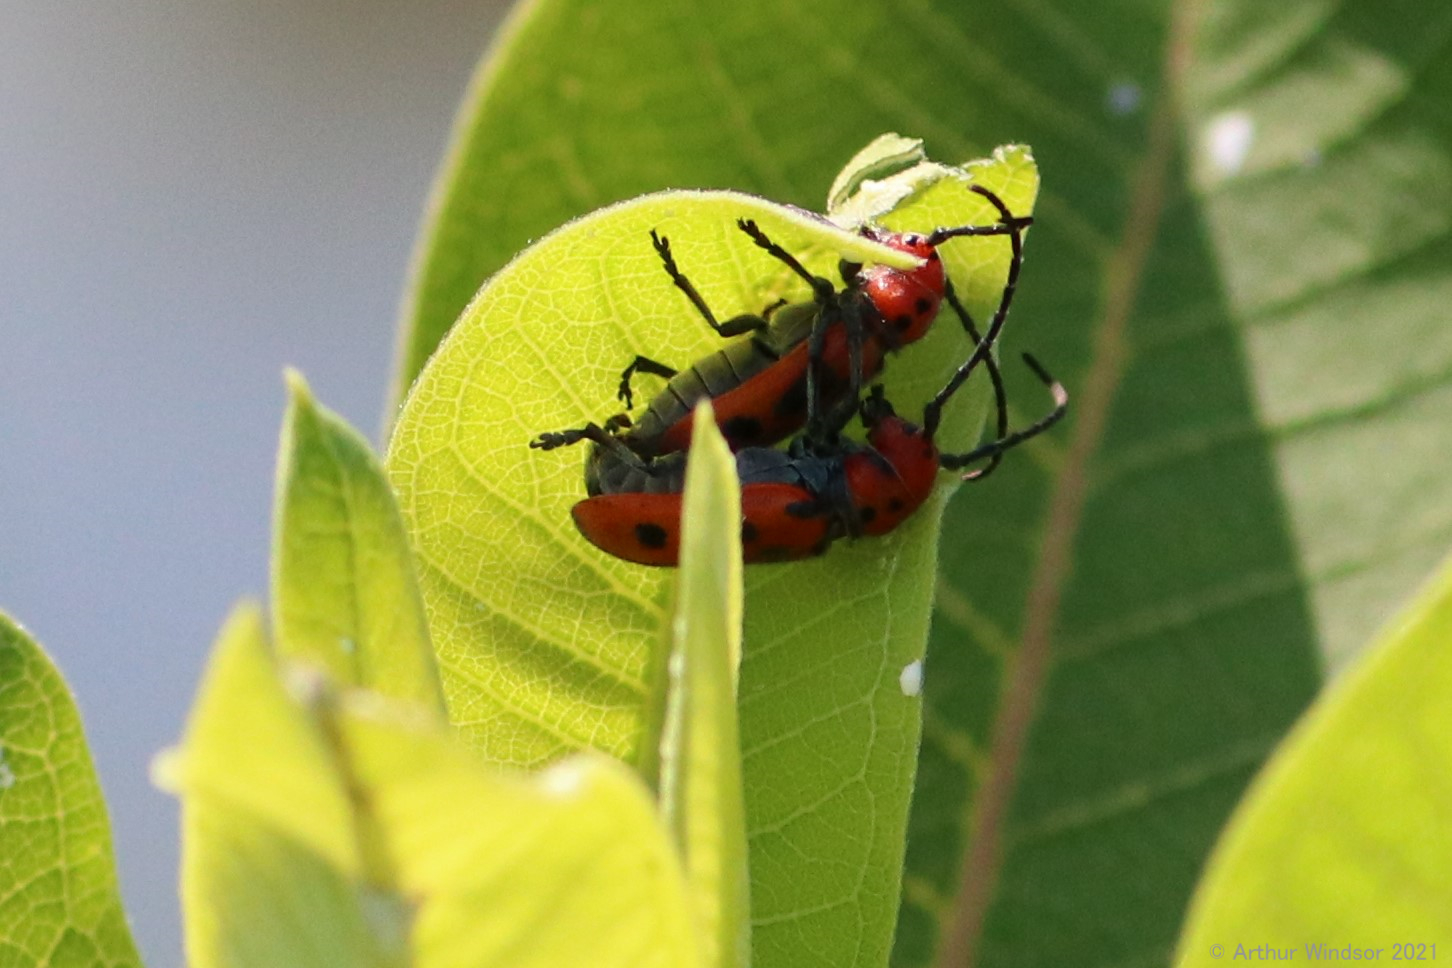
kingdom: Animalia
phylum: Arthropoda
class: Insecta
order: Coleoptera
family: Cerambycidae
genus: Tetraopes
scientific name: Tetraopes tetrophthalmus
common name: Red milkweed beetle
